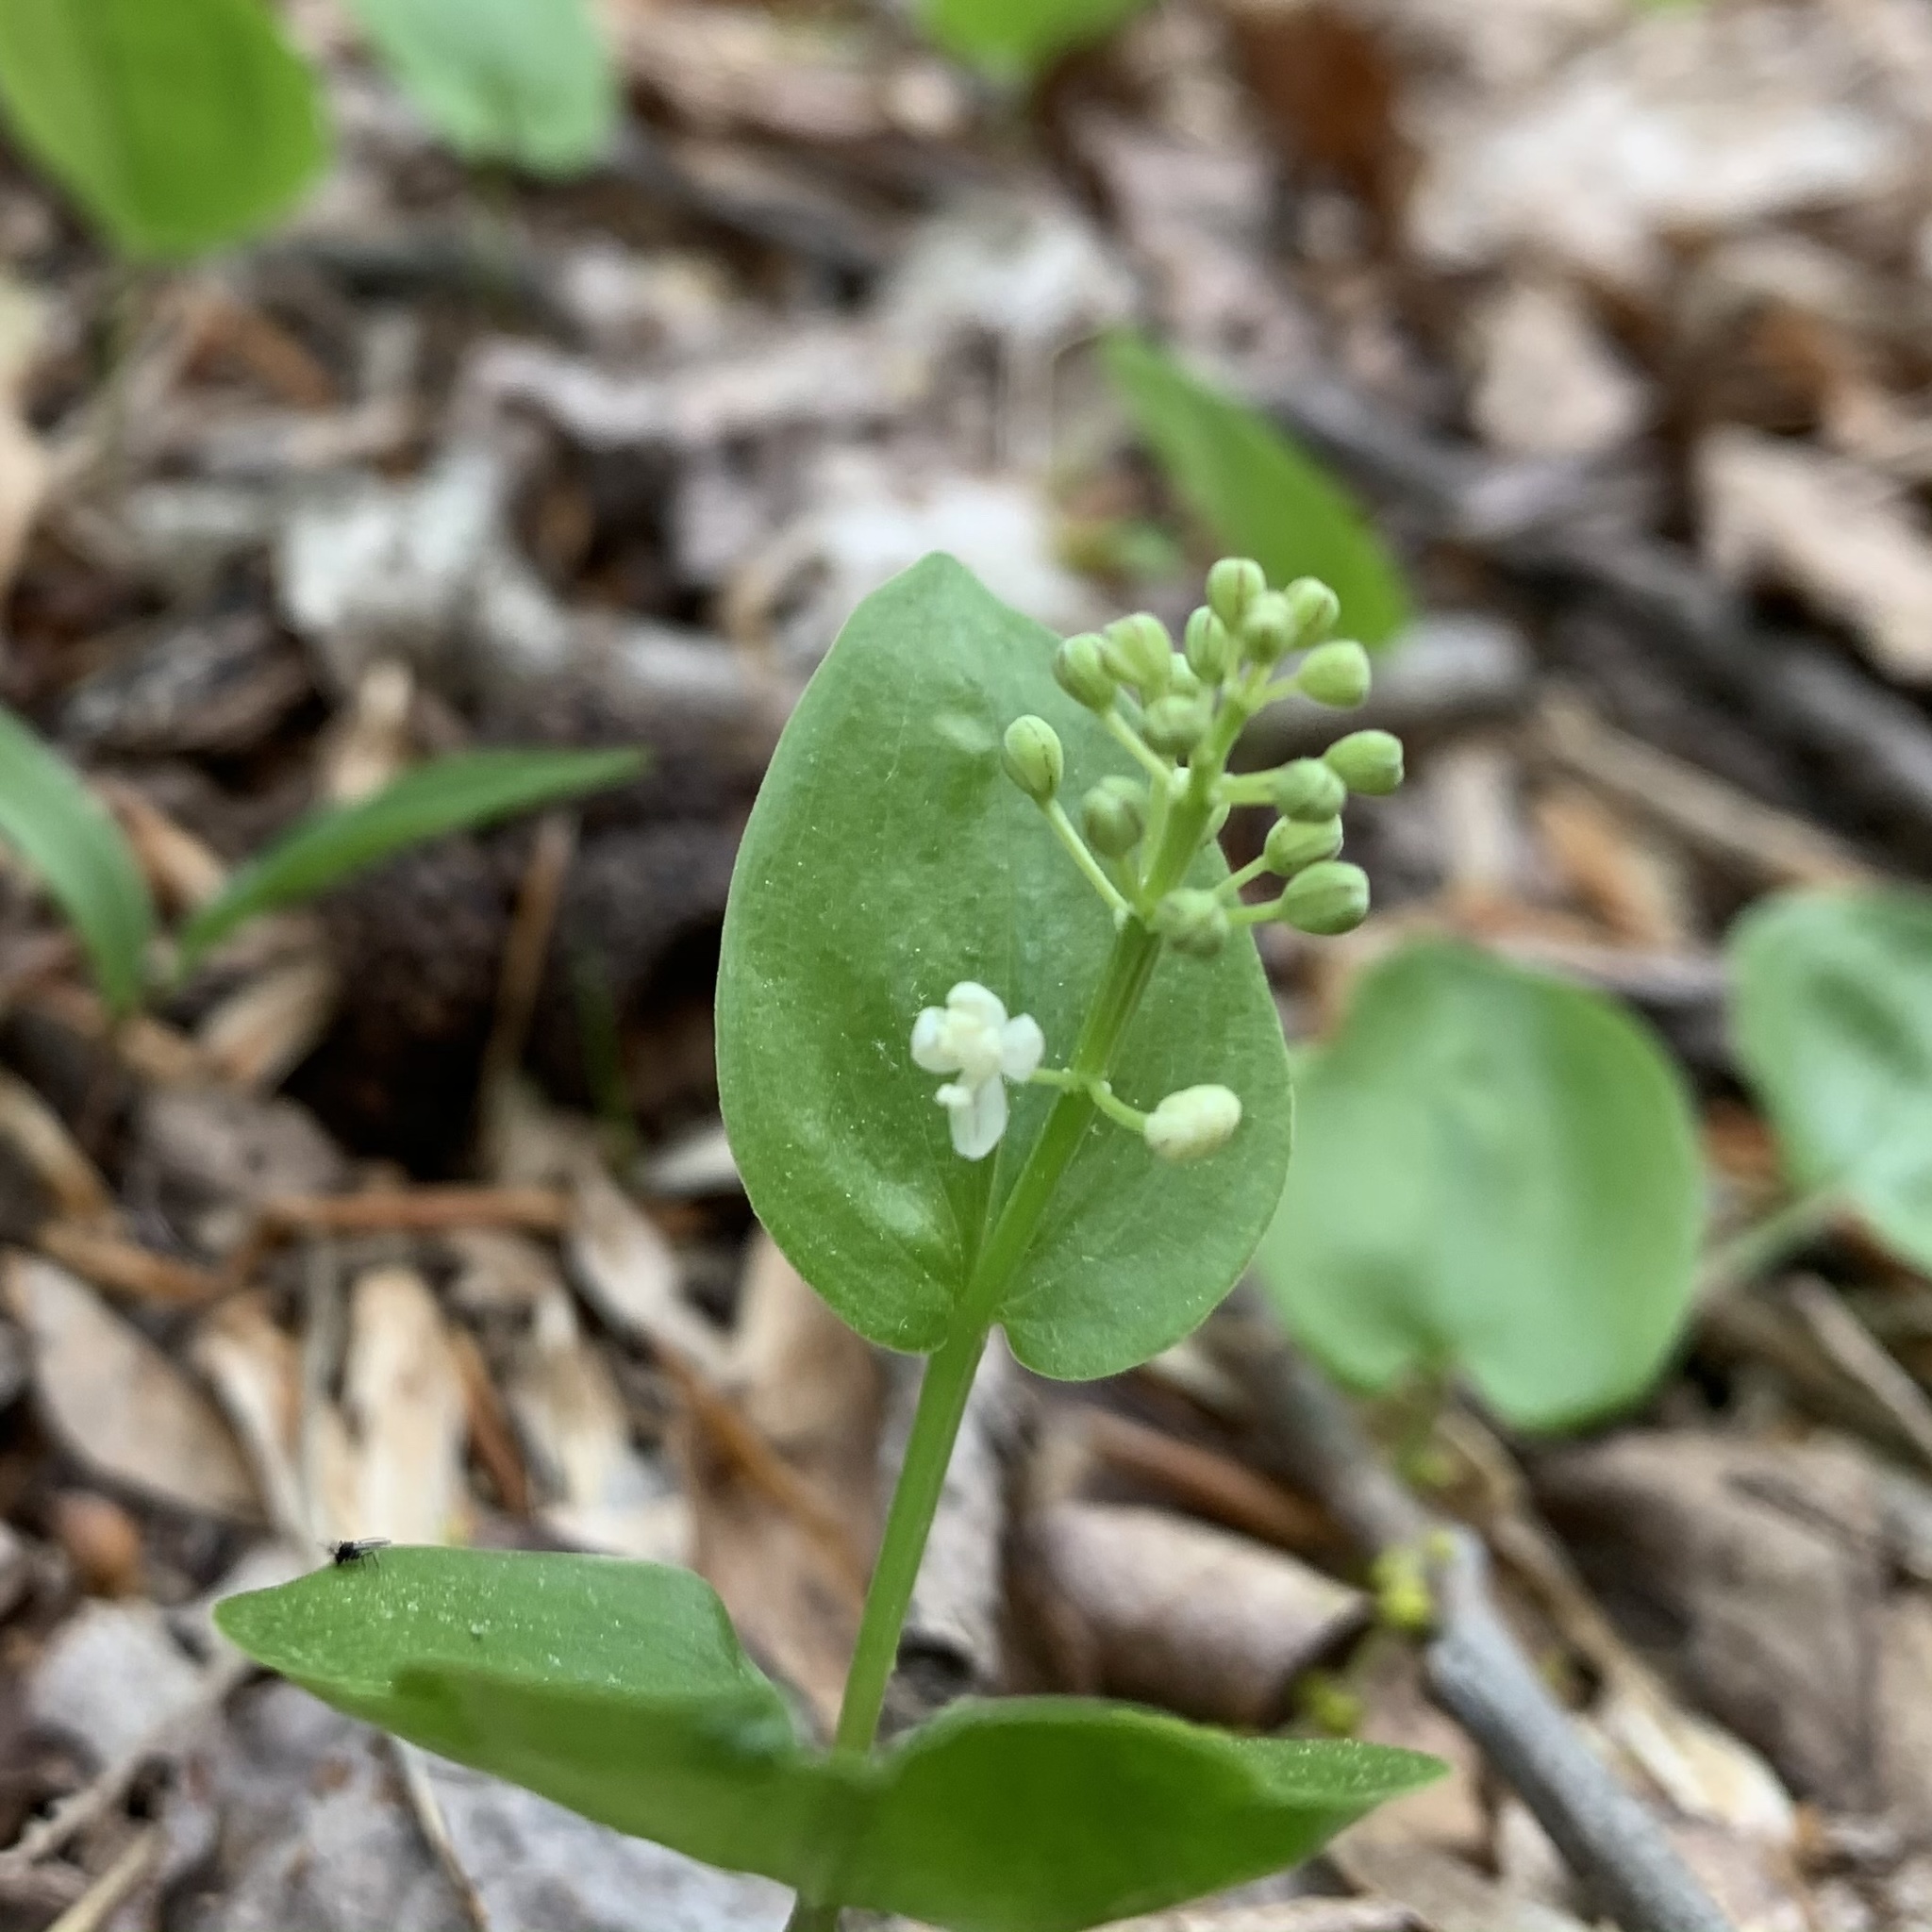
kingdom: Plantae
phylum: Tracheophyta
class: Liliopsida
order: Asparagales
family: Asparagaceae
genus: Maianthemum
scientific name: Maianthemum canadense
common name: False lily-of-the-valley
